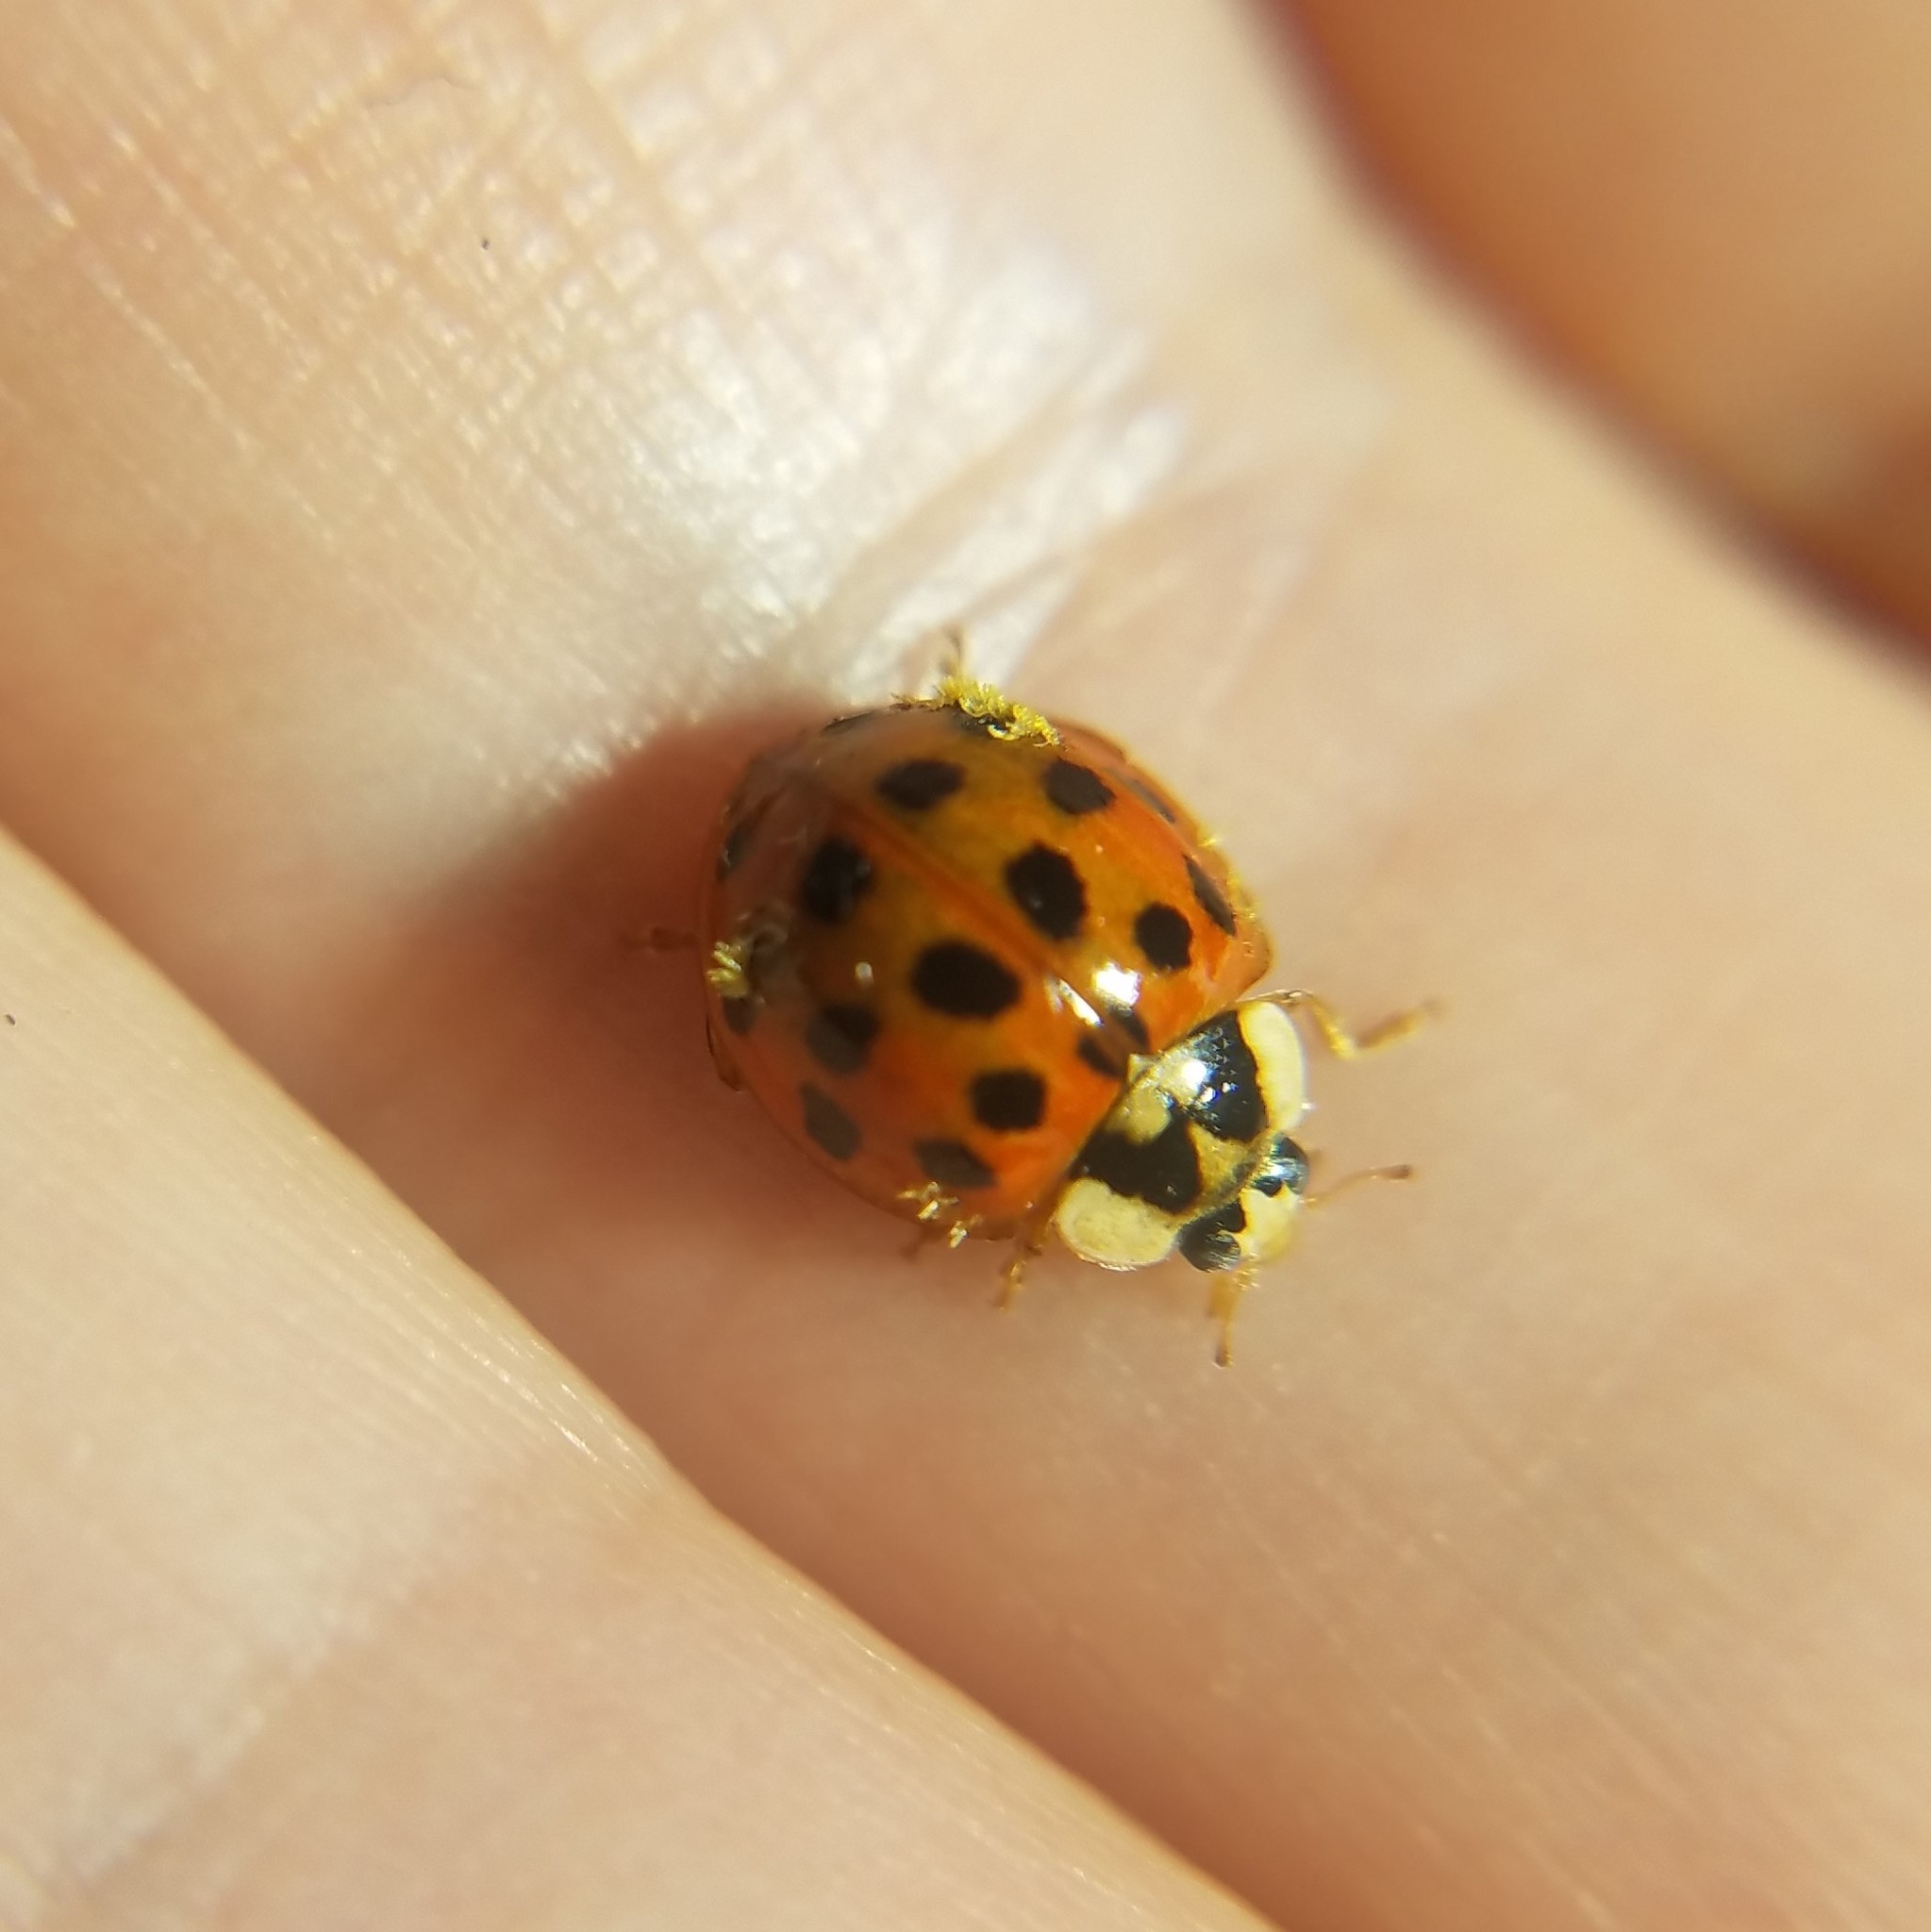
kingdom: Animalia
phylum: Arthropoda
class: Insecta
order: Coleoptera
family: Coccinellidae
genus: Harmonia
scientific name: Harmonia axyridis
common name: Harlequin ladybird
